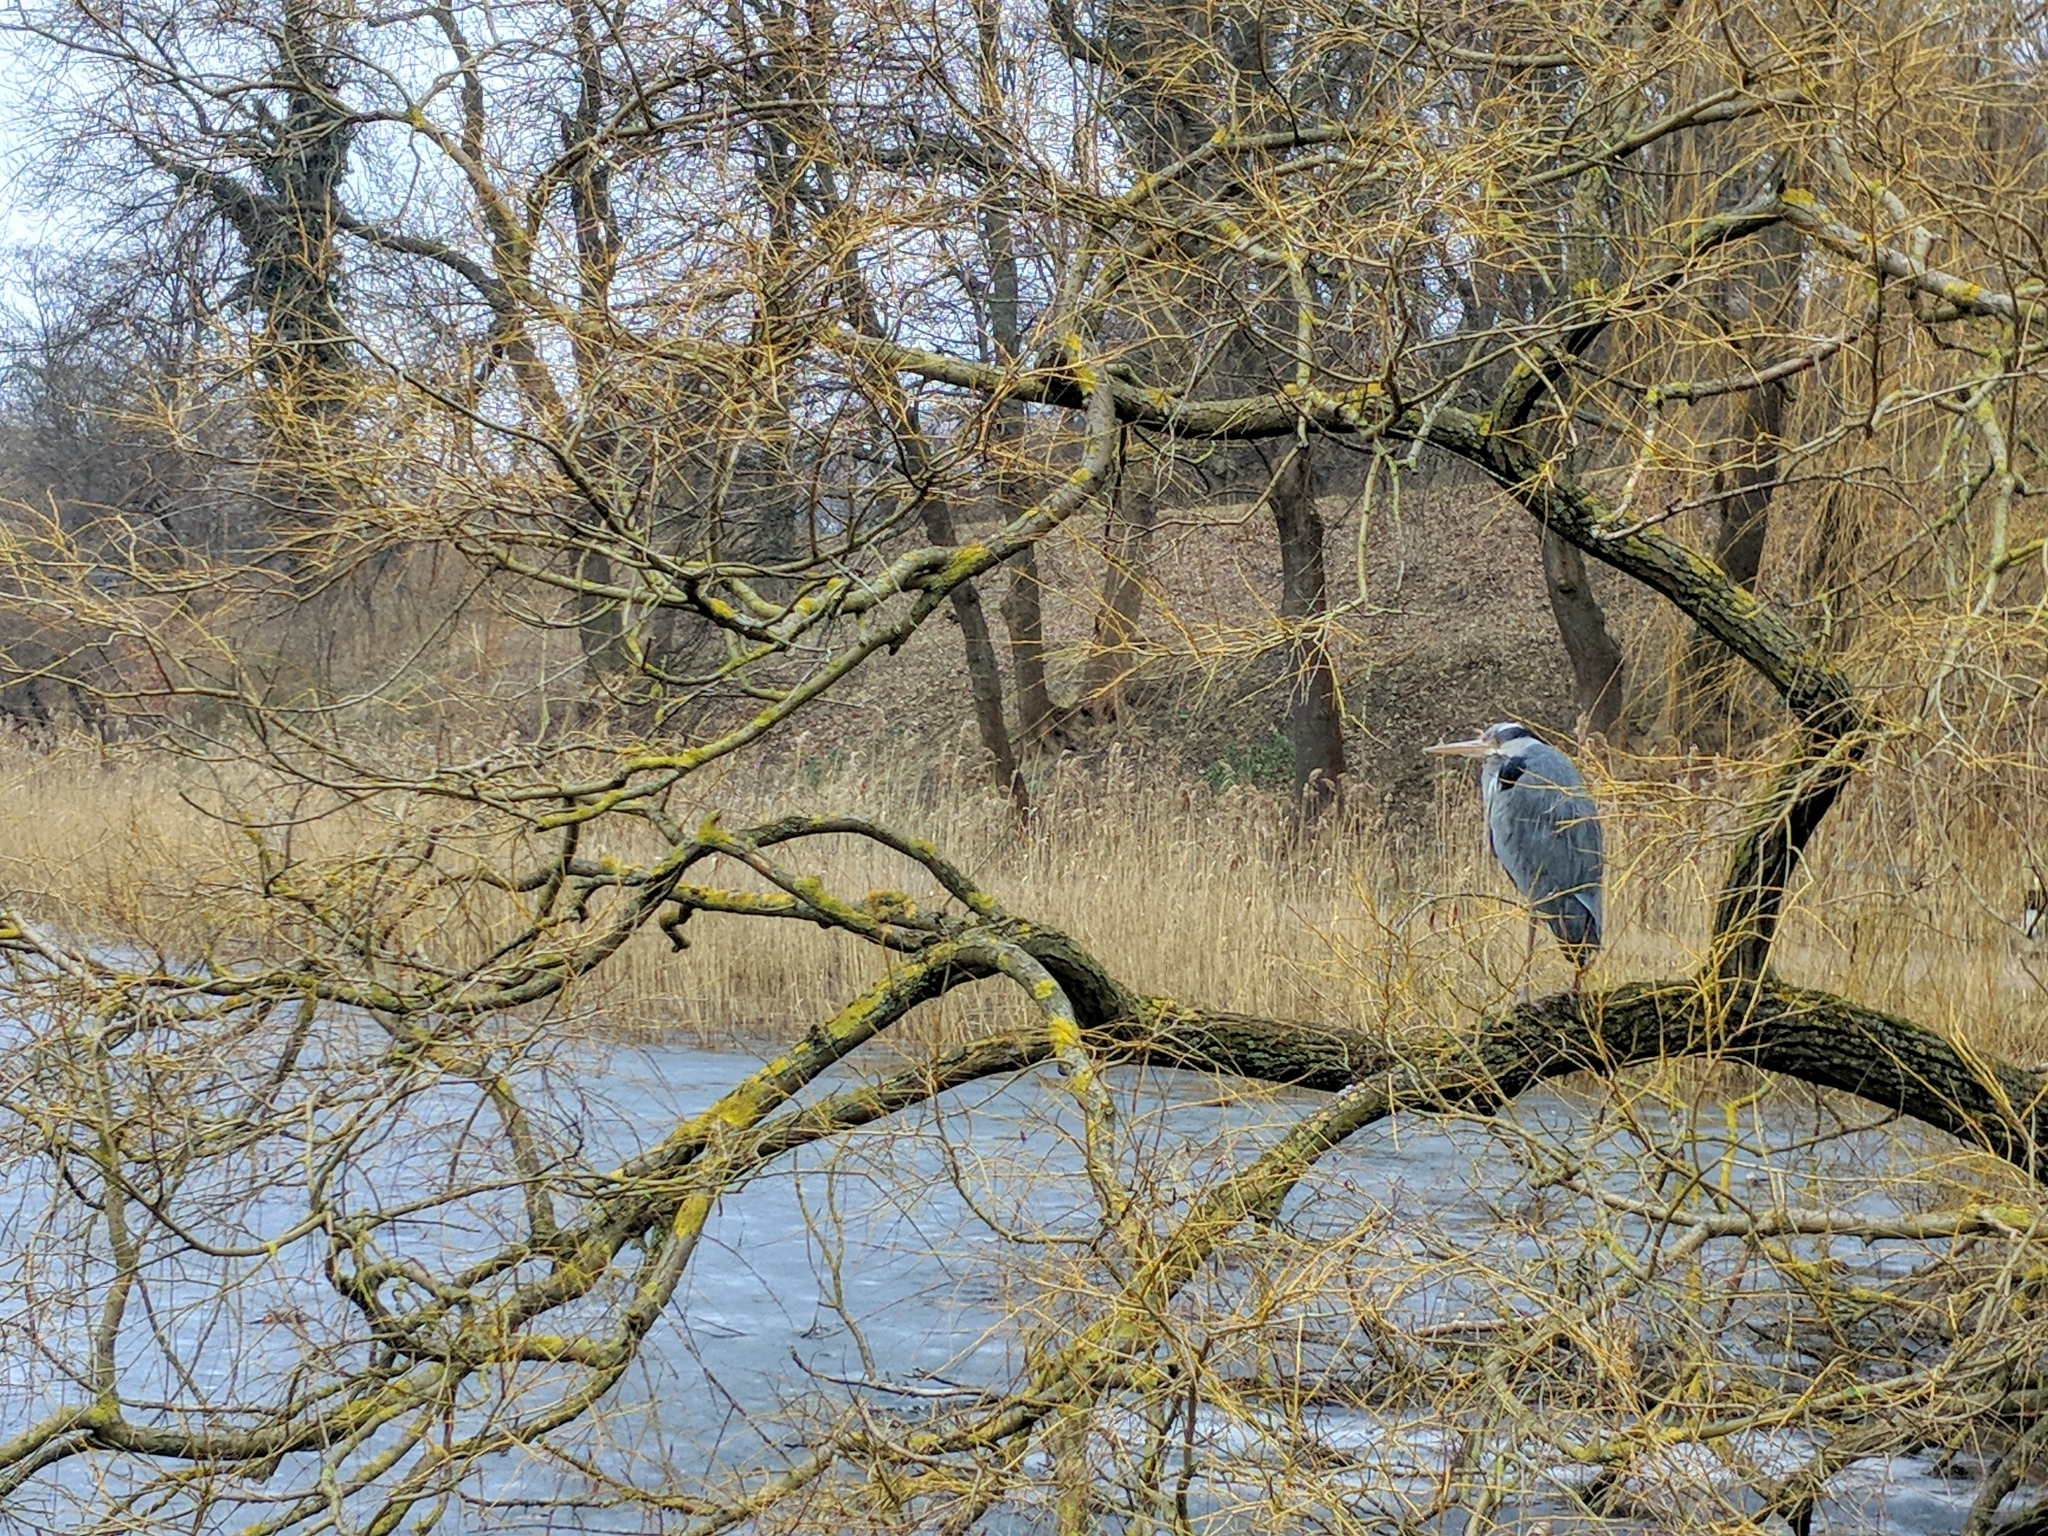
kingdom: Animalia
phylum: Chordata
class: Aves
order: Pelecaniformes
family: Ardeidae
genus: Ardea
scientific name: Ardea cinerea
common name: Grey heron
